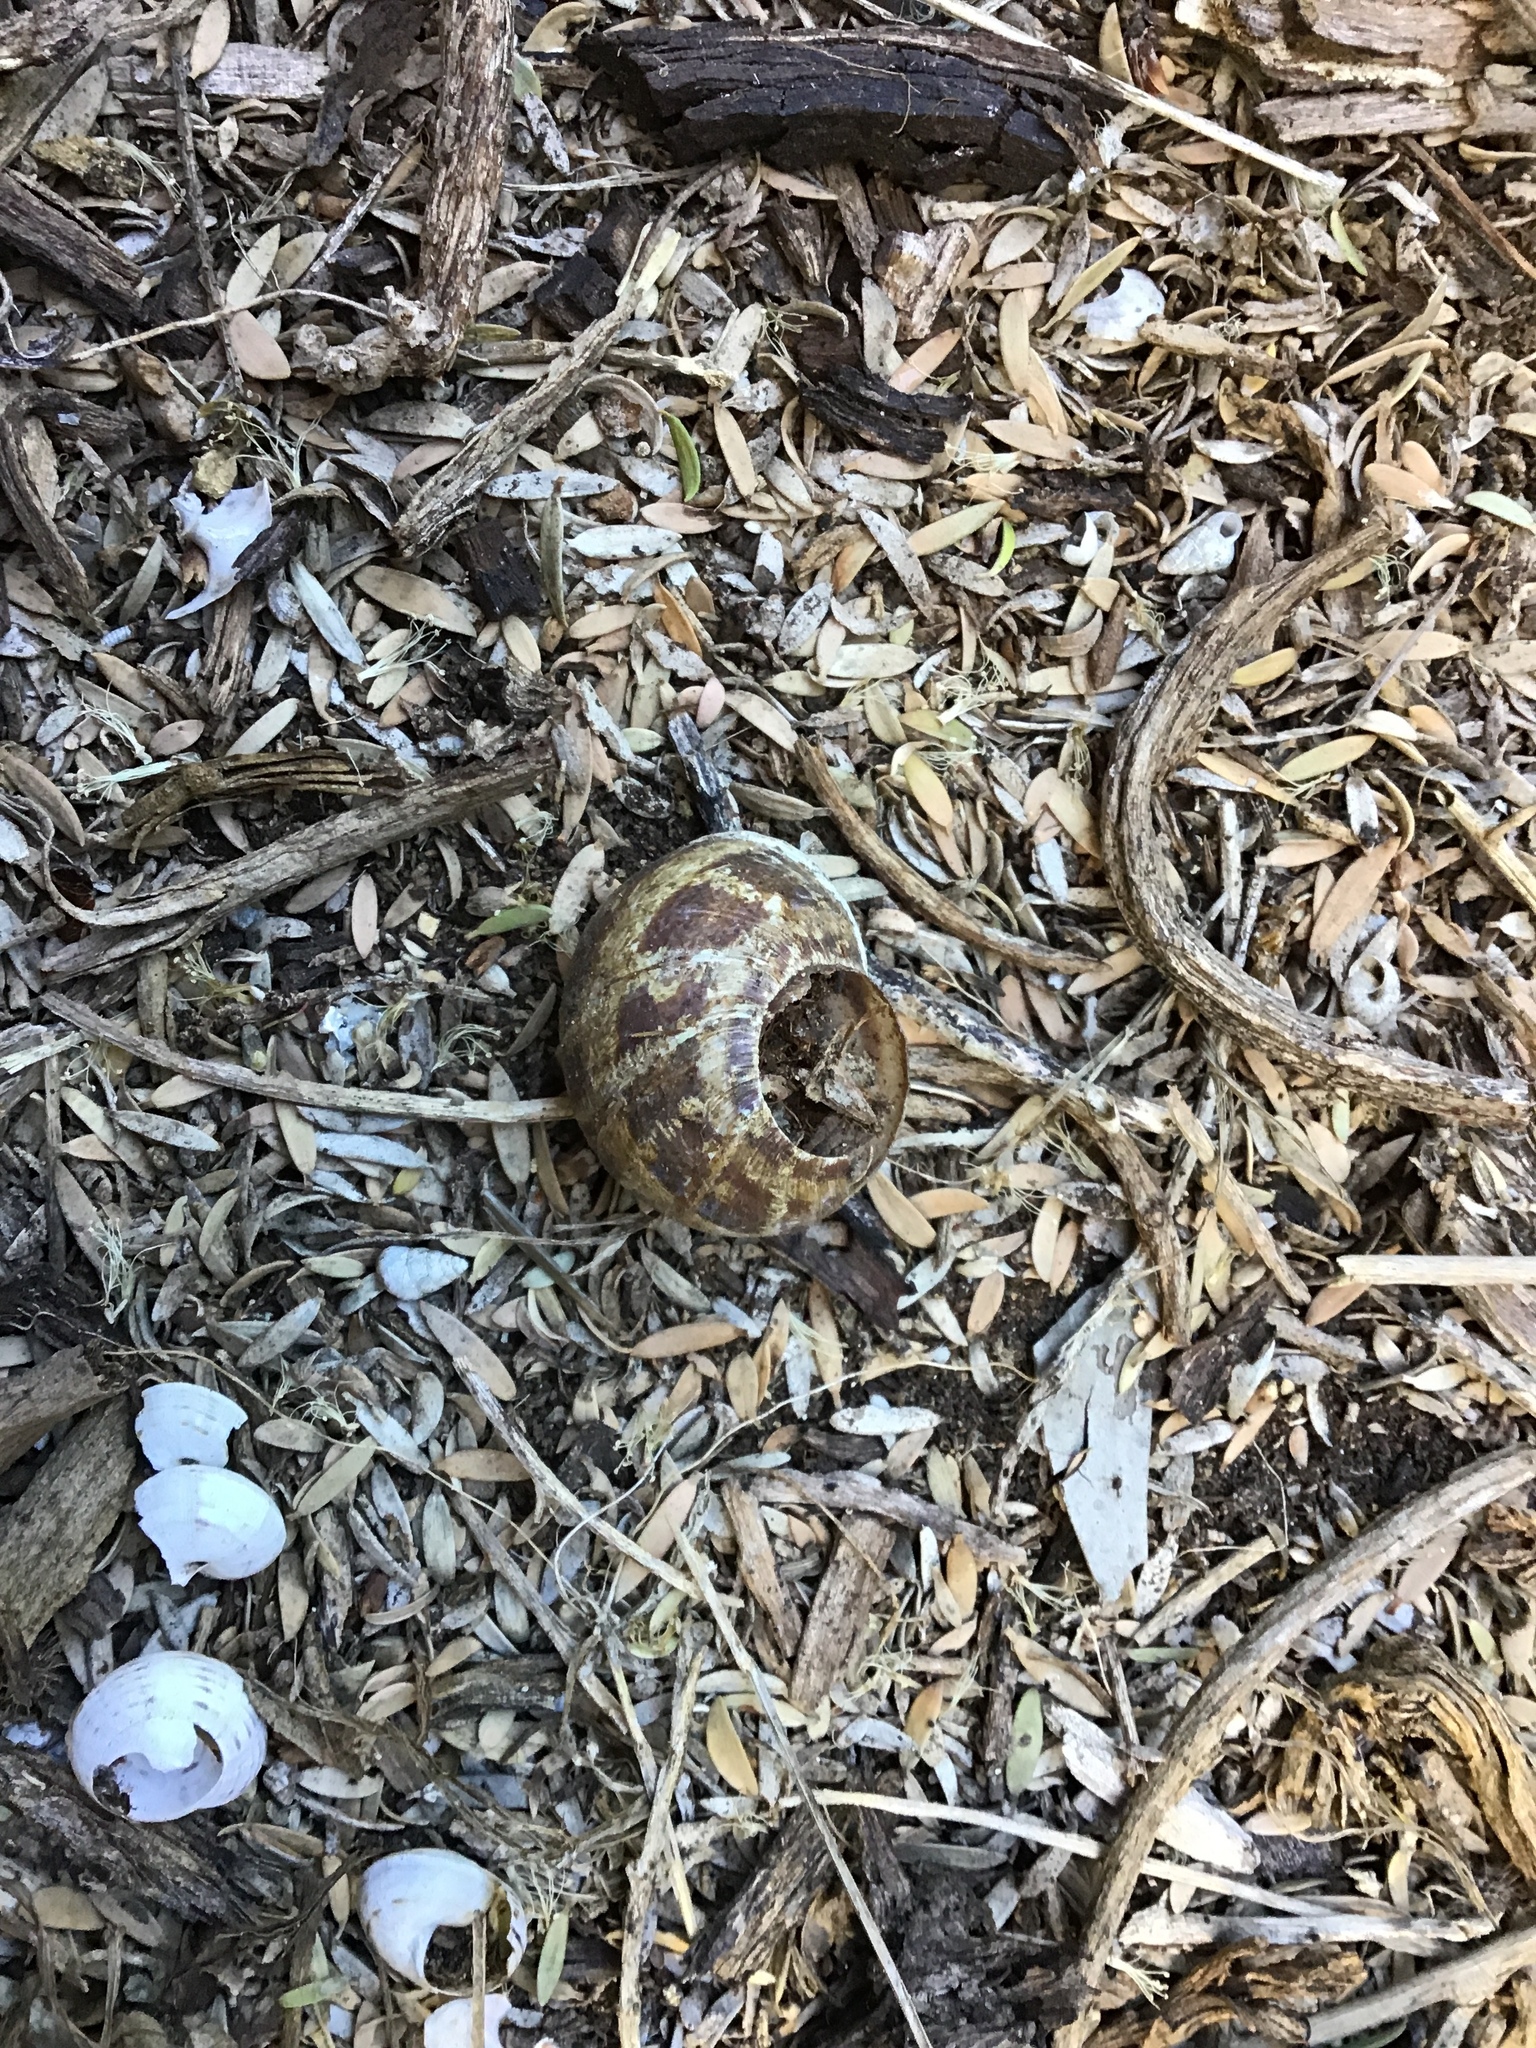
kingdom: Animalia
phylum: Mollusca
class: Gastropoda
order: Stylommatophora
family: Helicidae
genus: Cornu
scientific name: Cornu aspersum
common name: Brown garden snail
